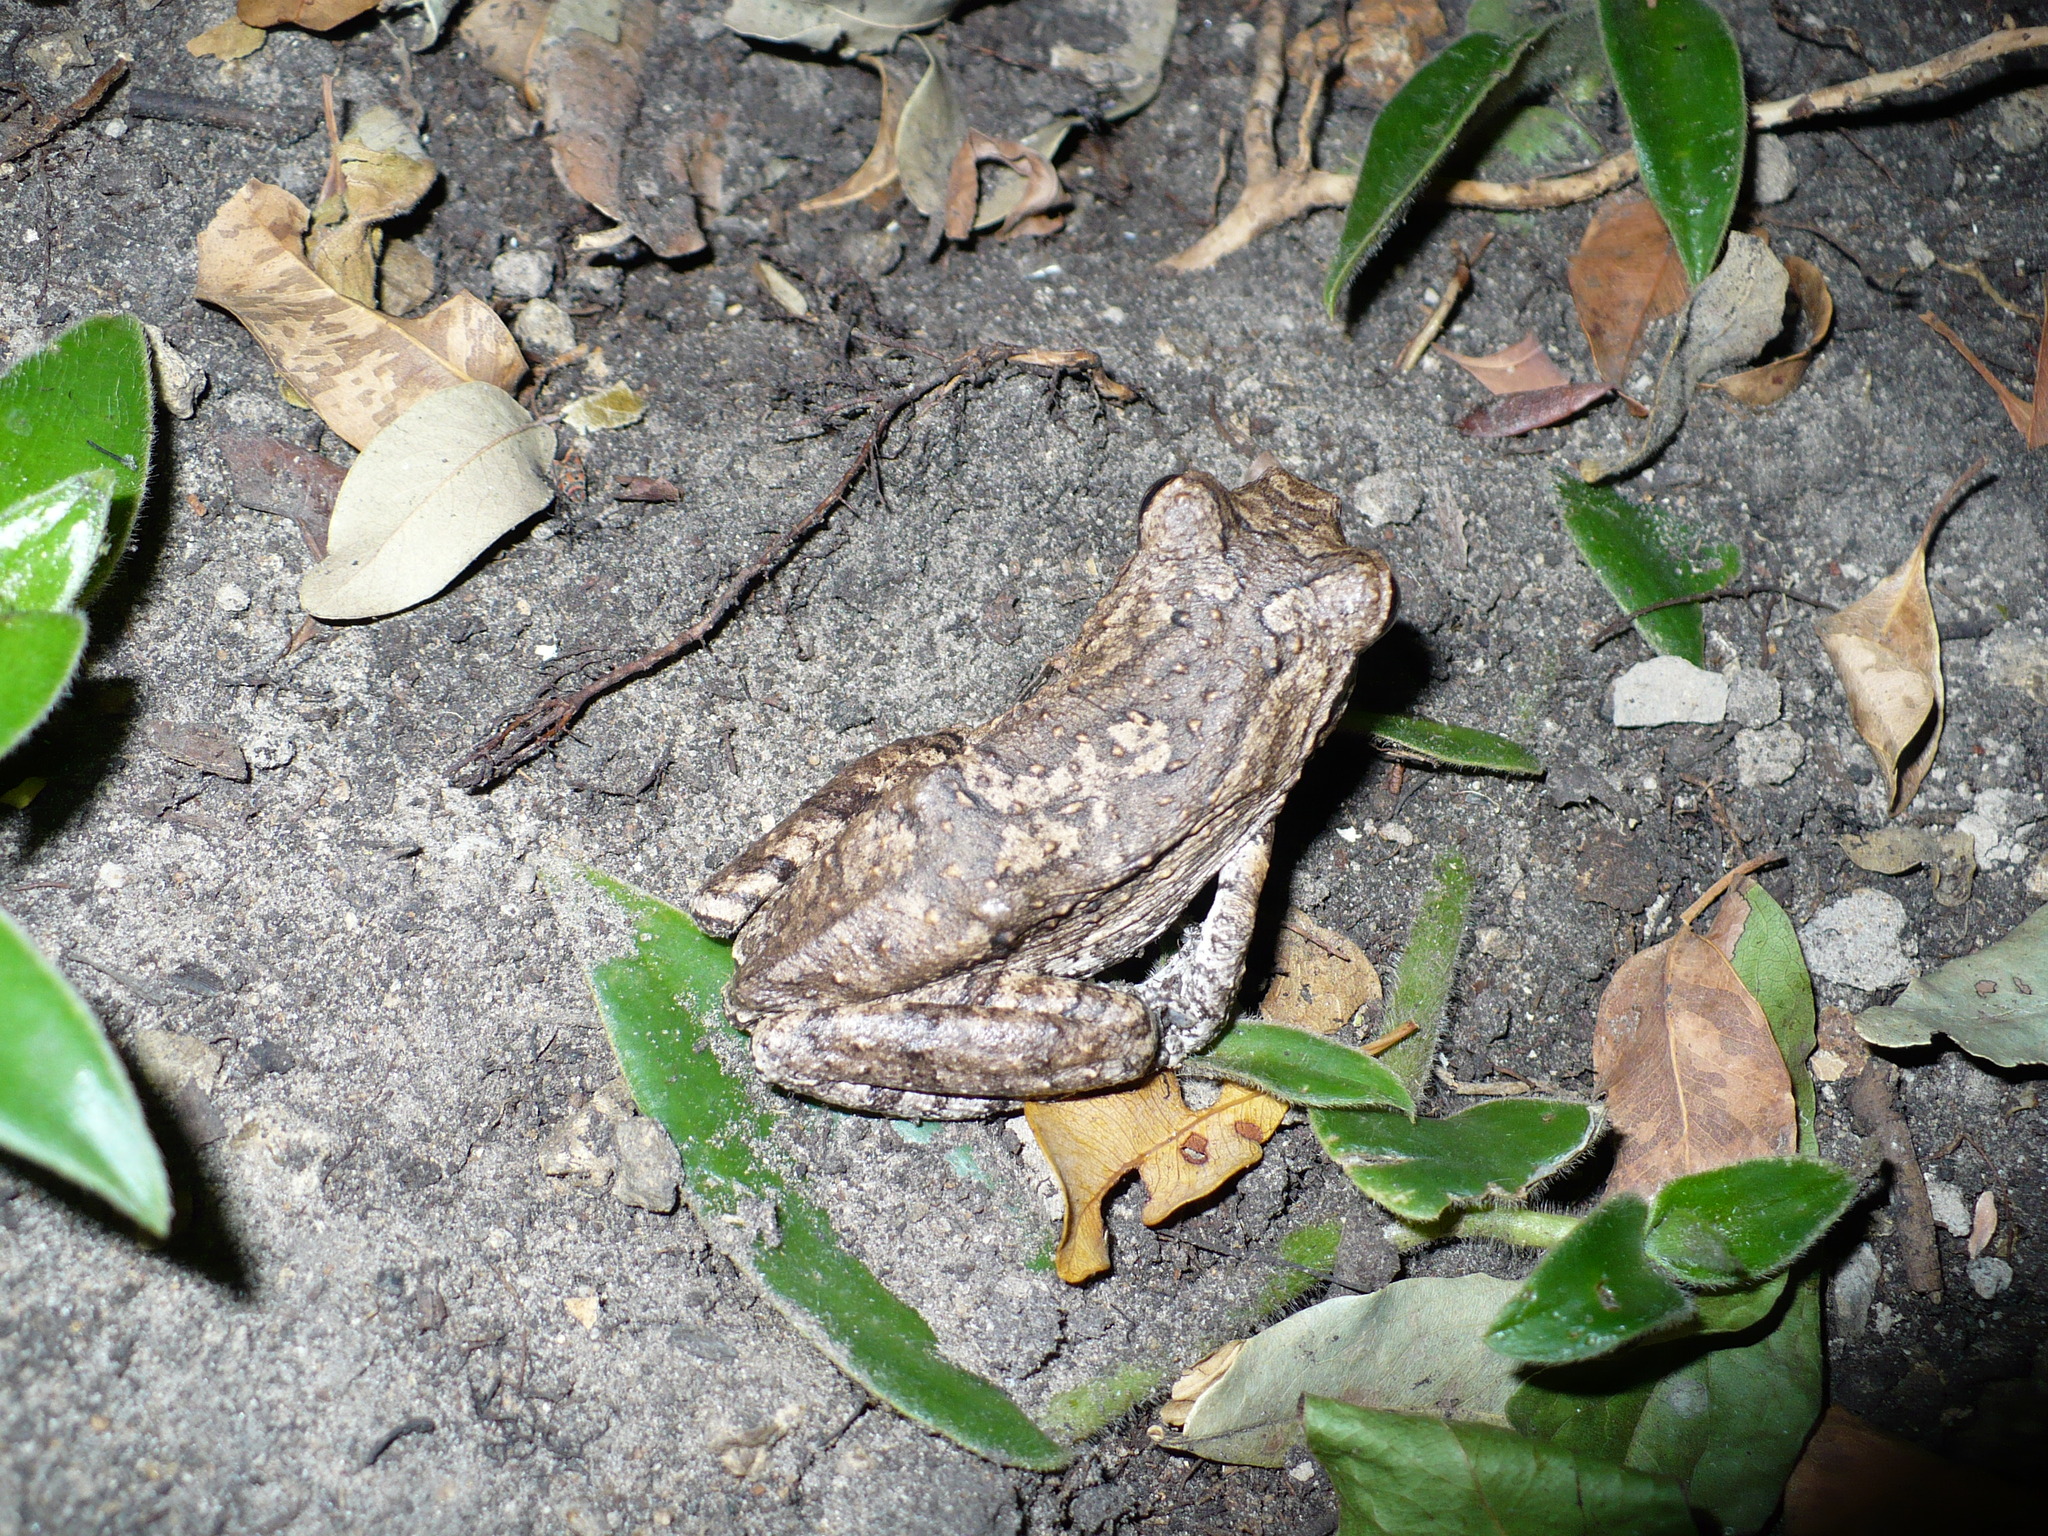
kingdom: Animalia
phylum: Chordata
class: Amphibia
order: Anura
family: Rhacophoridae
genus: Chiromantis
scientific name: Chiromantis xerampelina
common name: African gray treefrog
